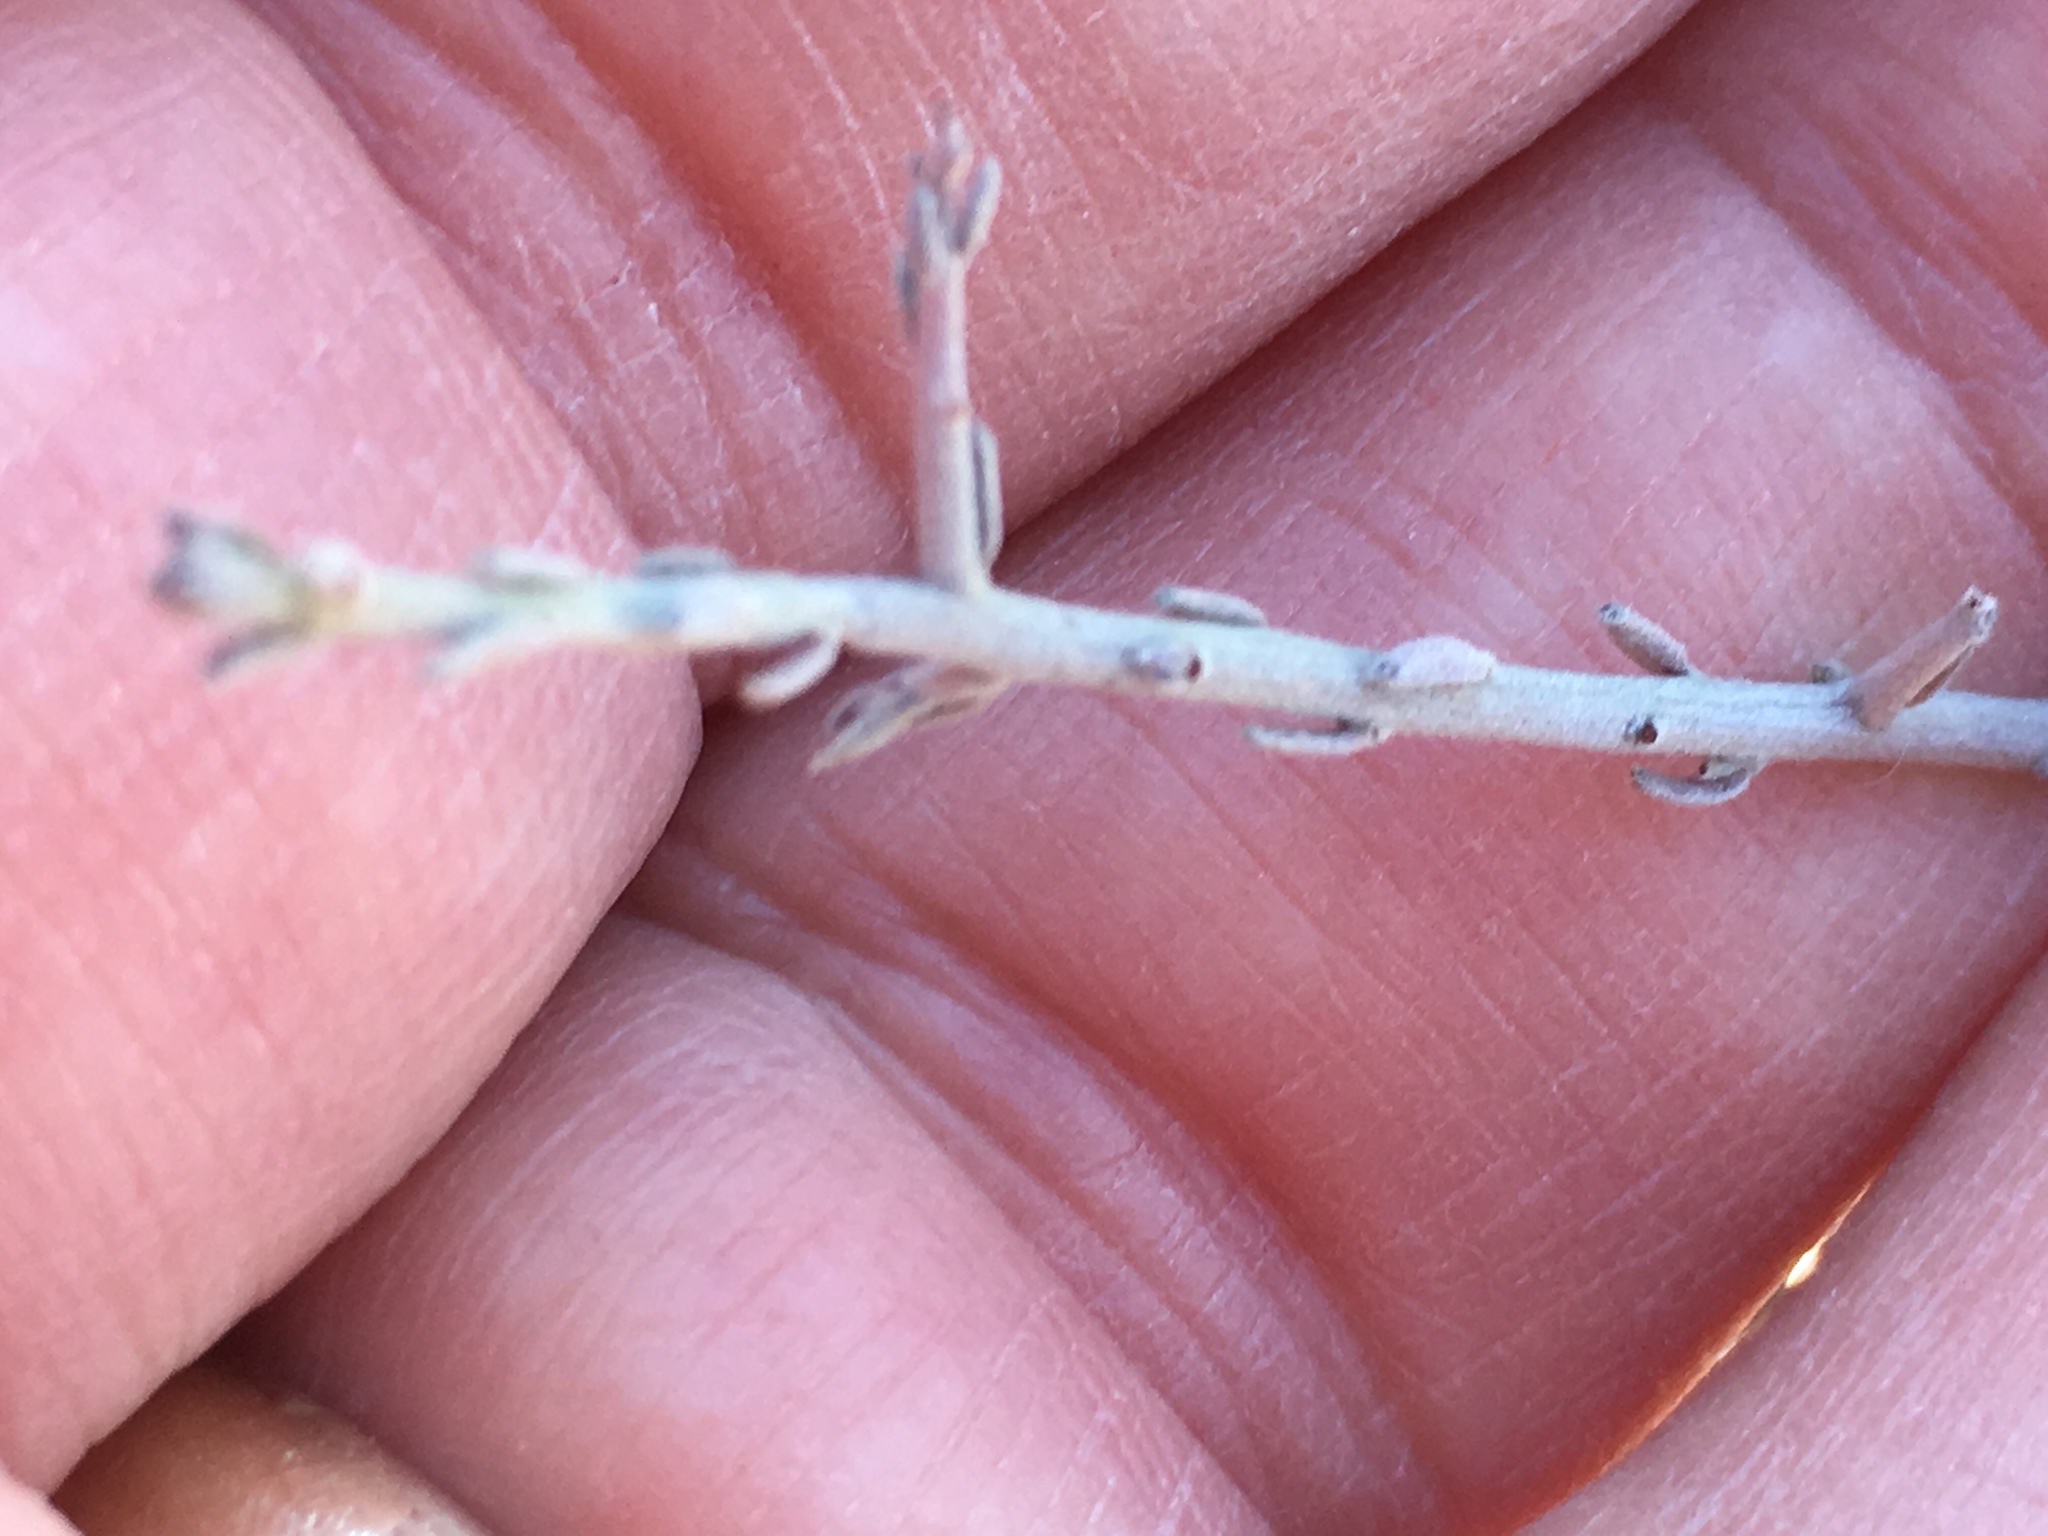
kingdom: Plantae
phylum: Tracheophyta
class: Magnoliopsida
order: Zygophyllales
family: Krameriaceae
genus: Krameria
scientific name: Krameria bicolor
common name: White ratany
